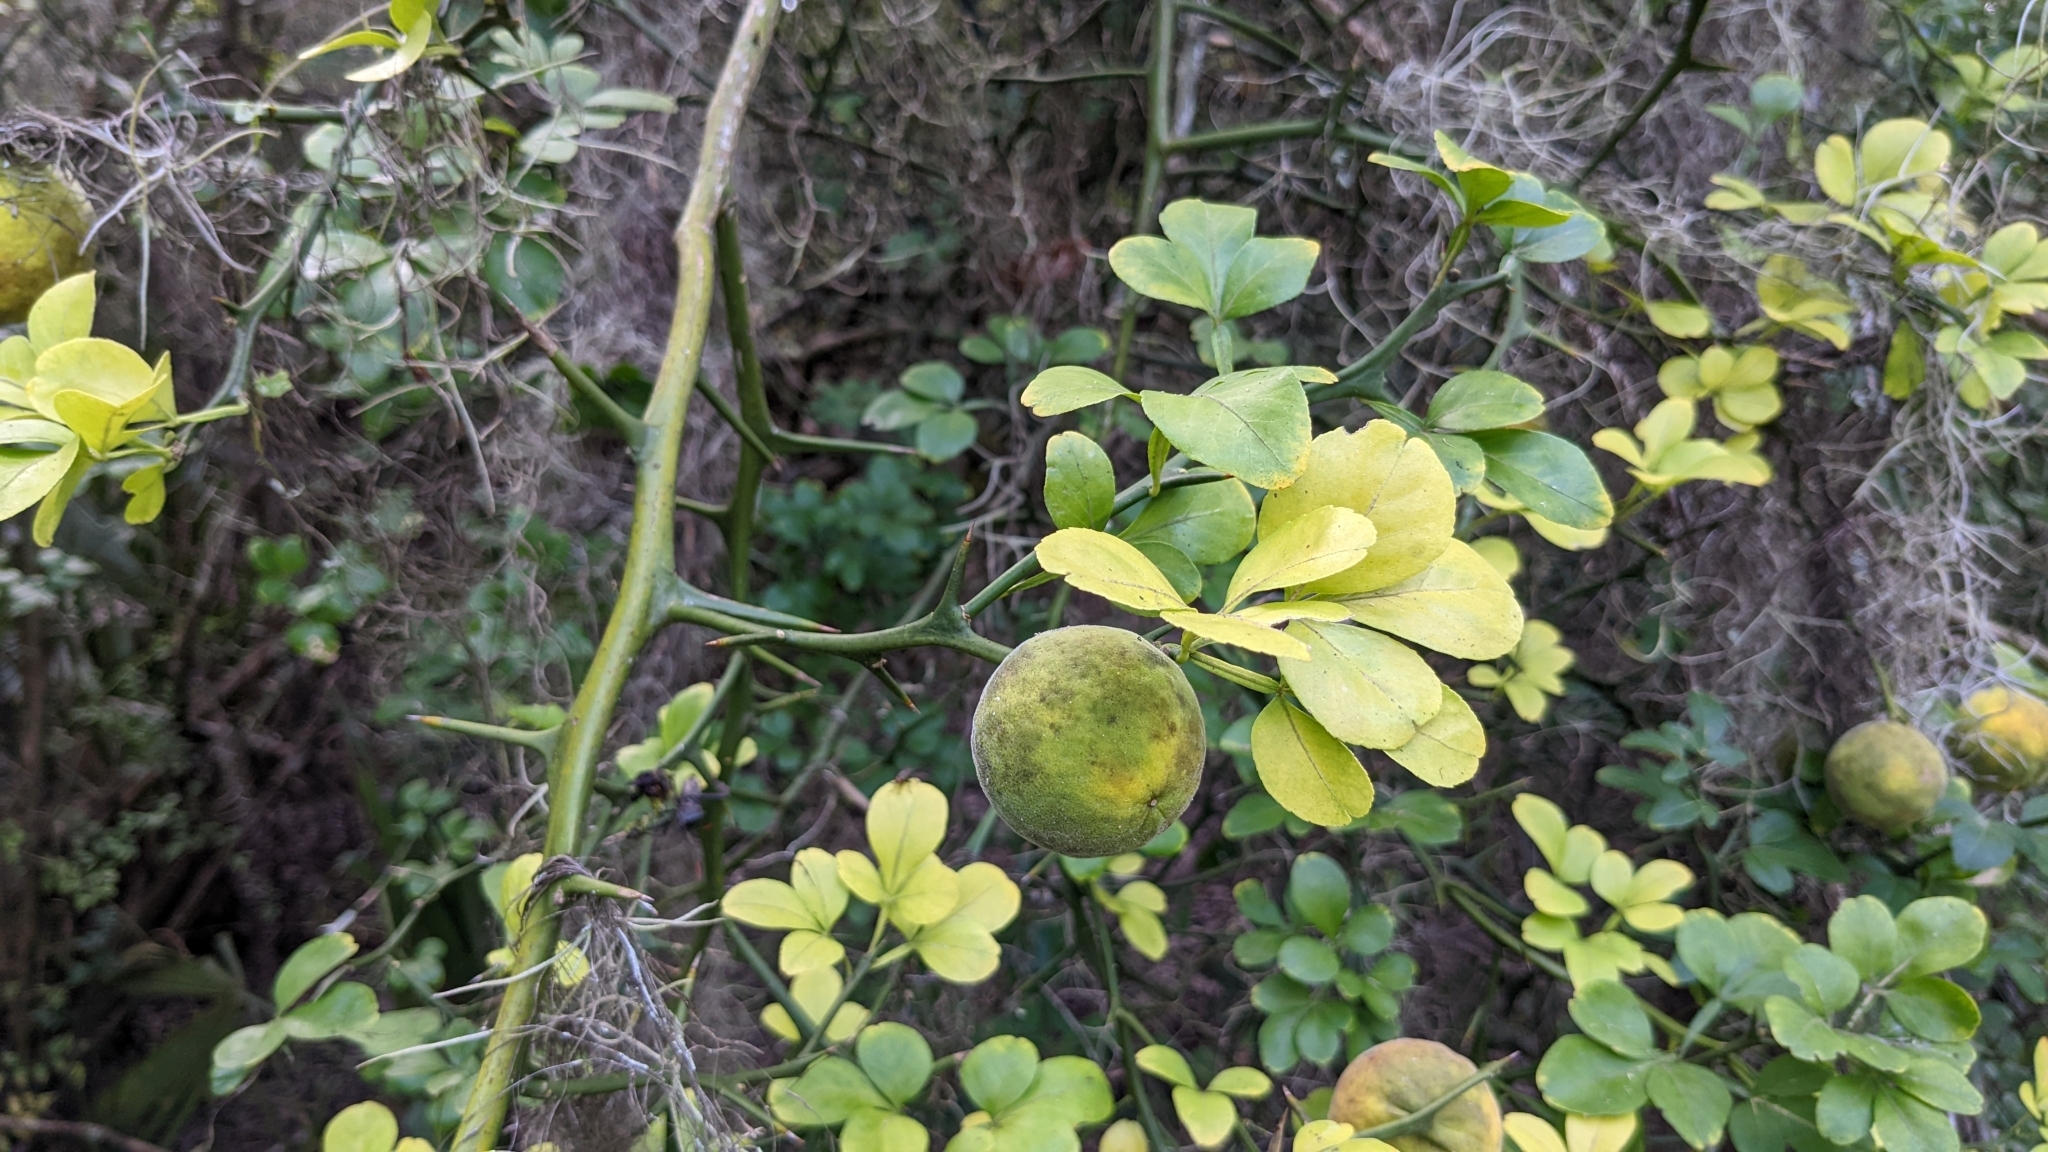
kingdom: Plantae
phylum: Tracheophyta
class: Magnoliopsida
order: Sapindales
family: Rutaceae
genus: Citrus
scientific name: Citrus trifoliata
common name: Japanese bitter-orange
